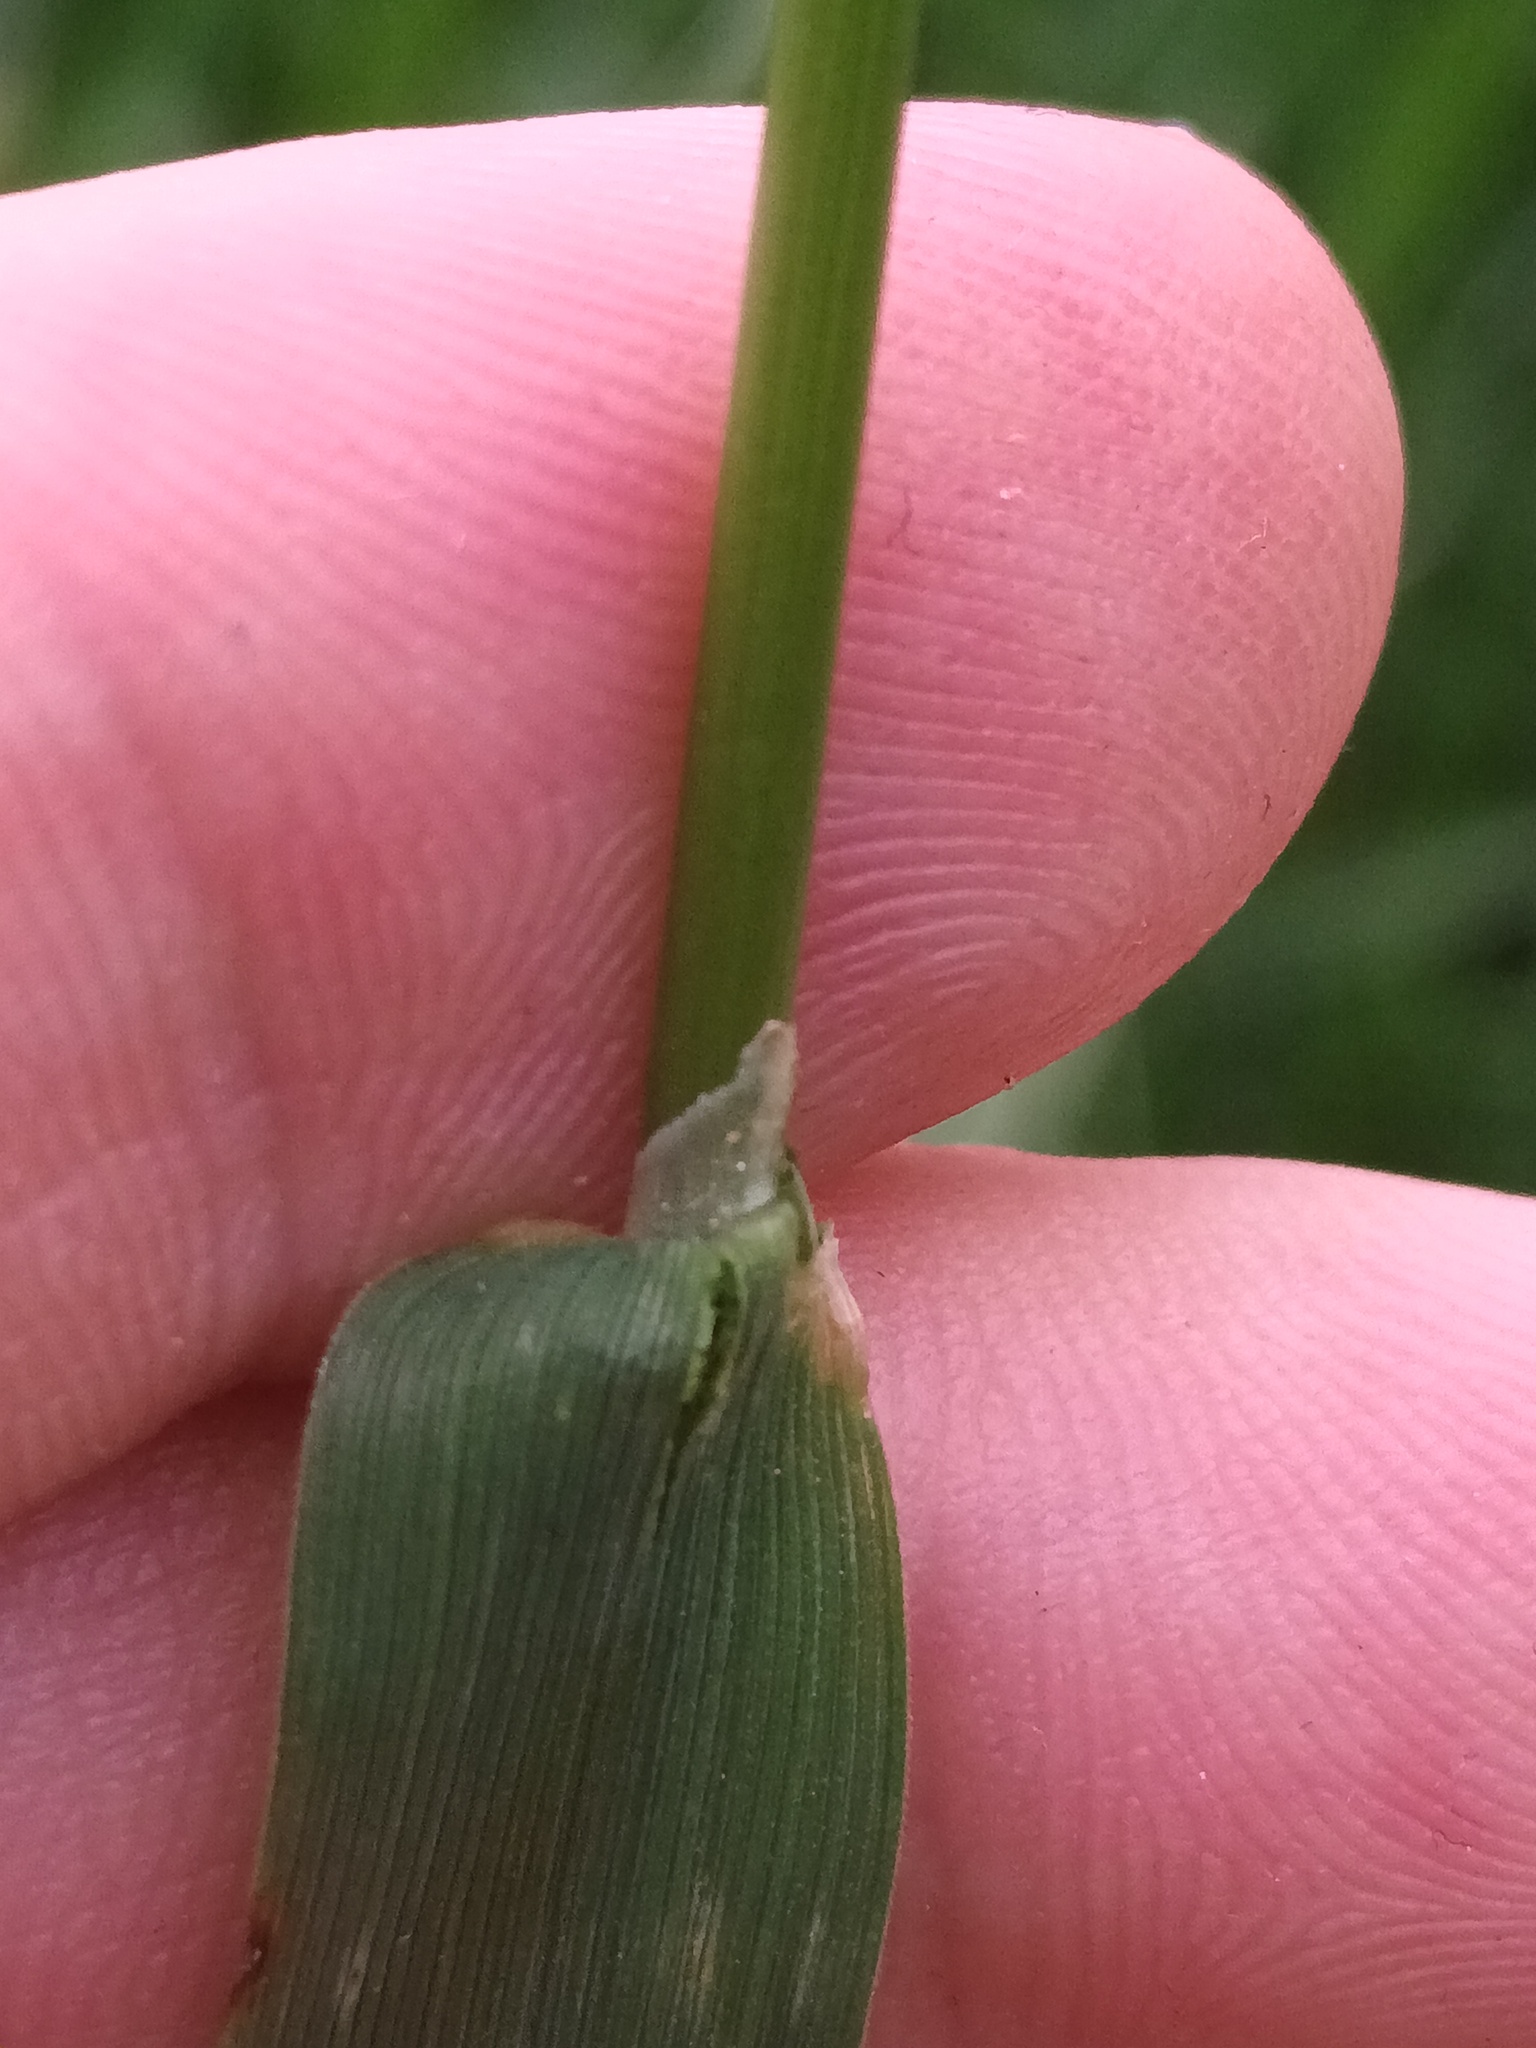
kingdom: Plantae
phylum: Tracheophyta
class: Liliopsida
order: Poales
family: Poaceae
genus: Alopecurus
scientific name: Alopecurus pratensis
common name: Meadow foxtail
